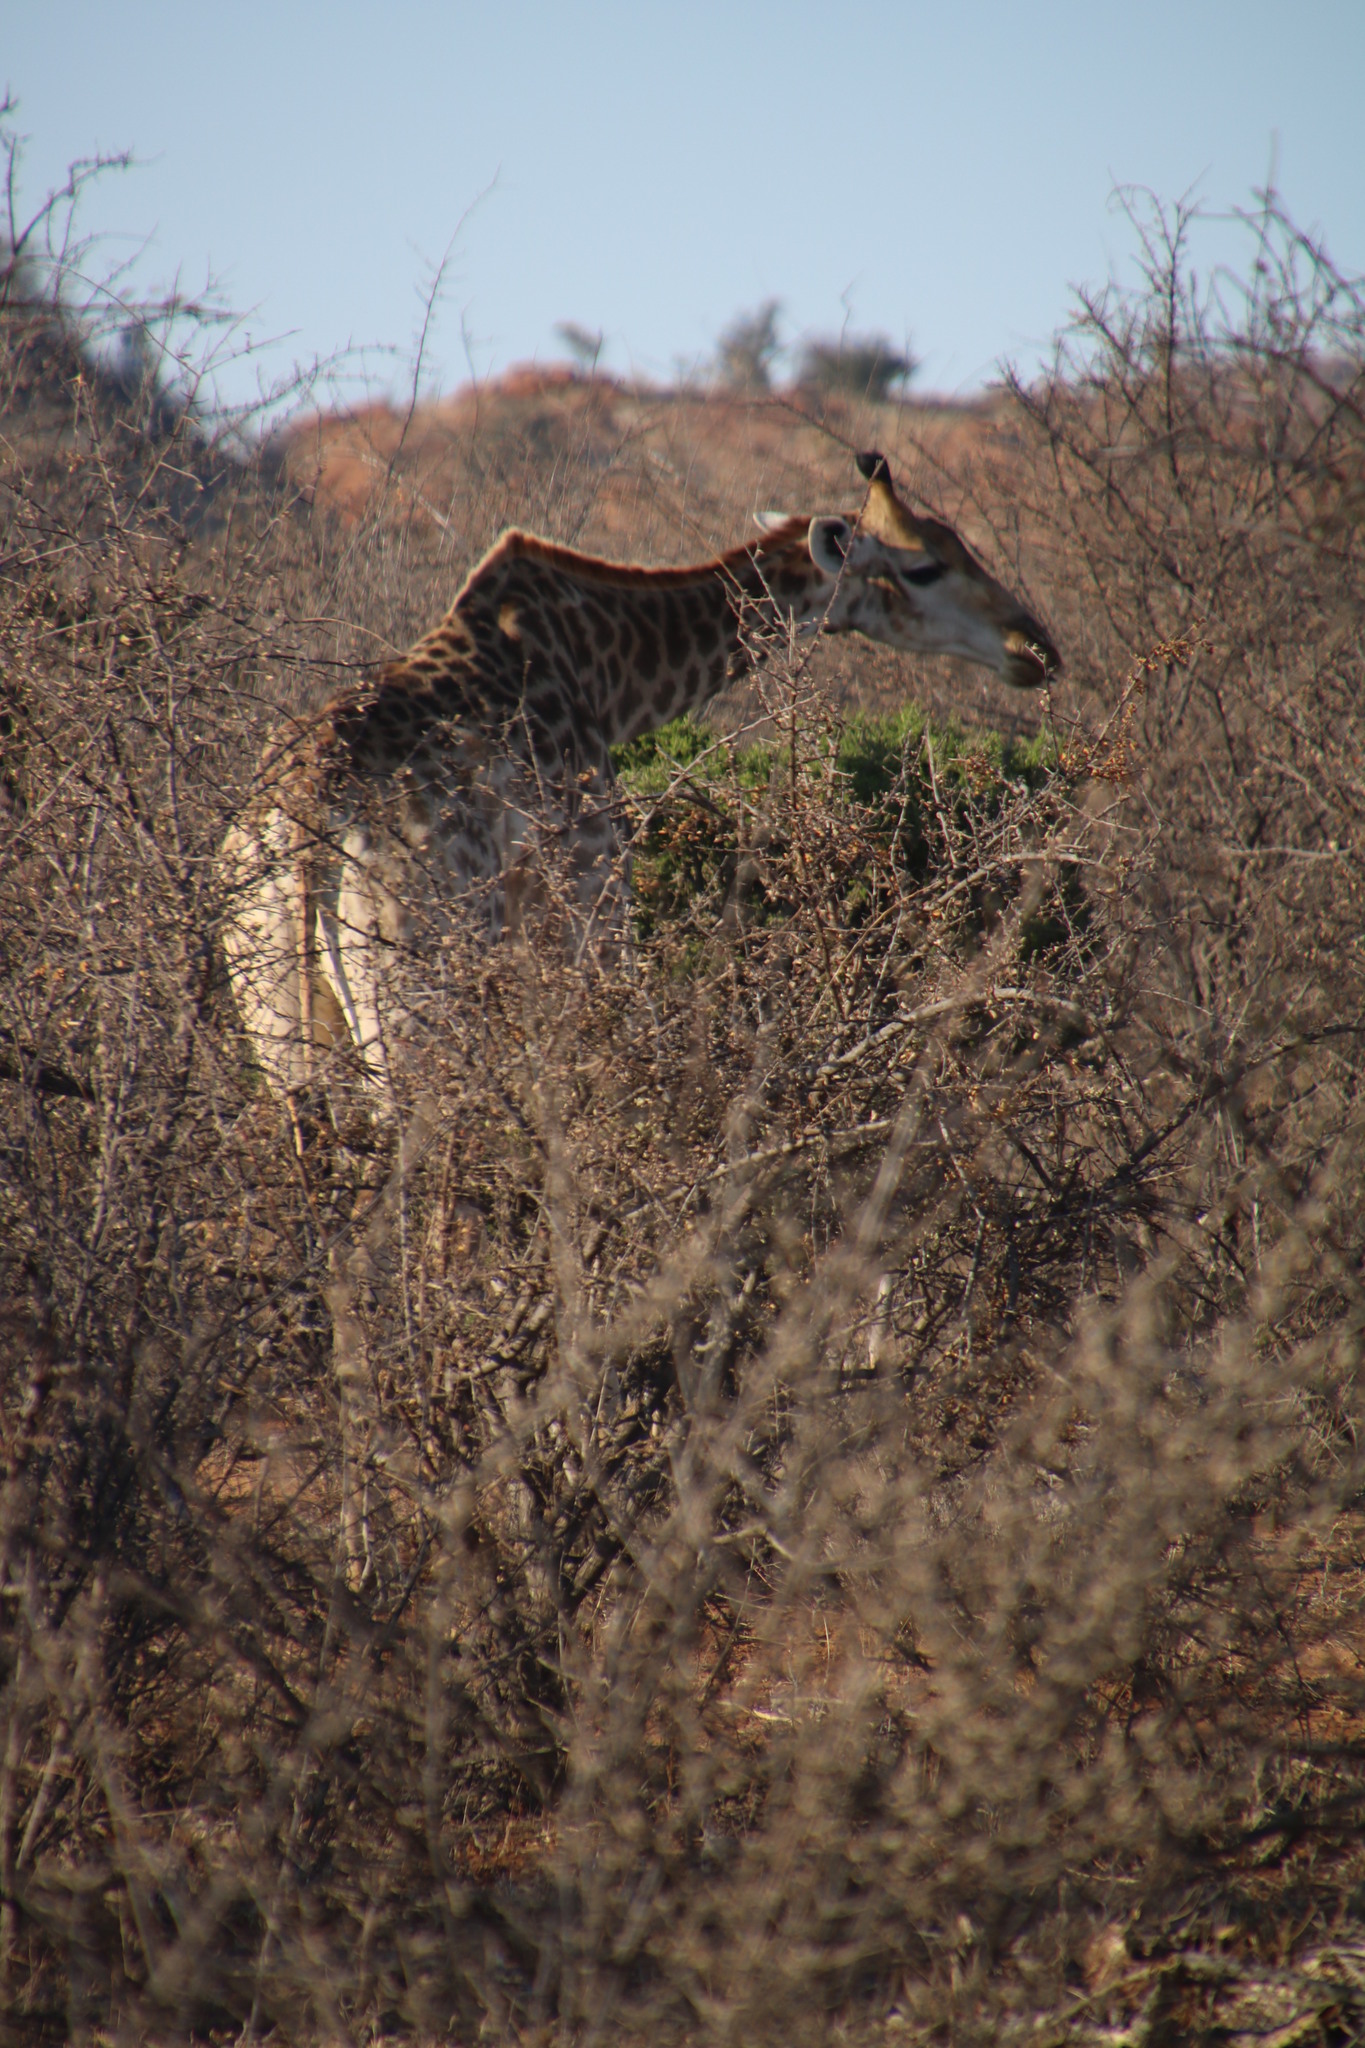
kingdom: Animalia
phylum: Chordata
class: Mammalia
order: Artiodactyla
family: Giraffidae
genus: Giraffa
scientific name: Giraffa giraffa
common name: Southern giraffe
